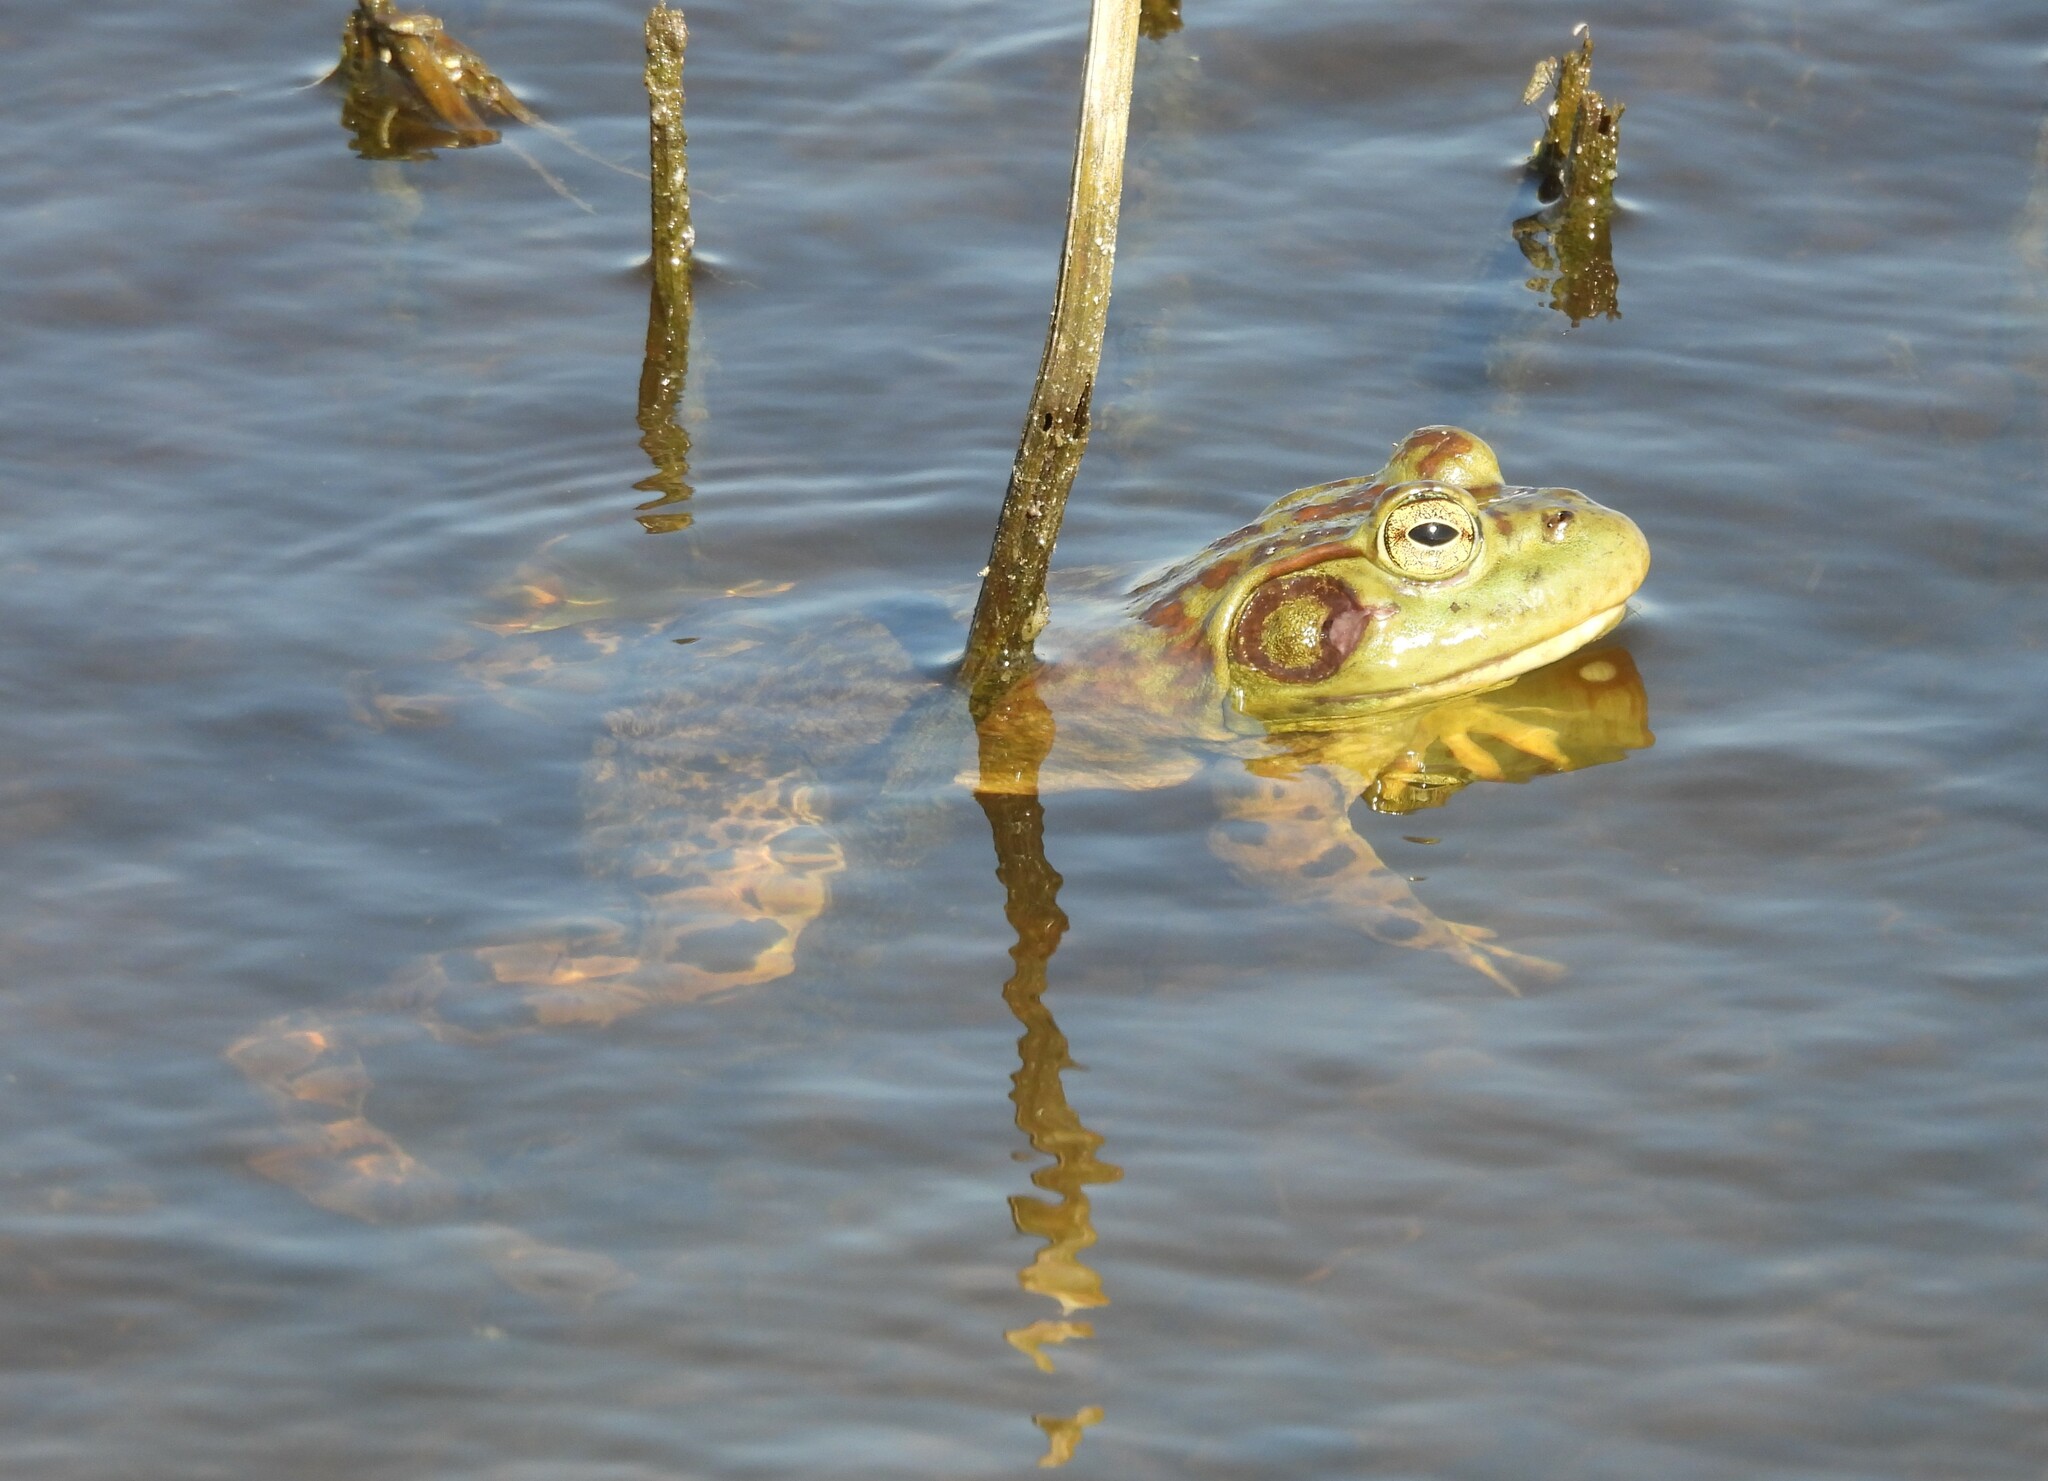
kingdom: Animalia
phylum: Chordata
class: Amphibia
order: Anura
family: Ranidae
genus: Lithobates
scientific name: Lithobates catesbeianus
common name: American bullfrog
